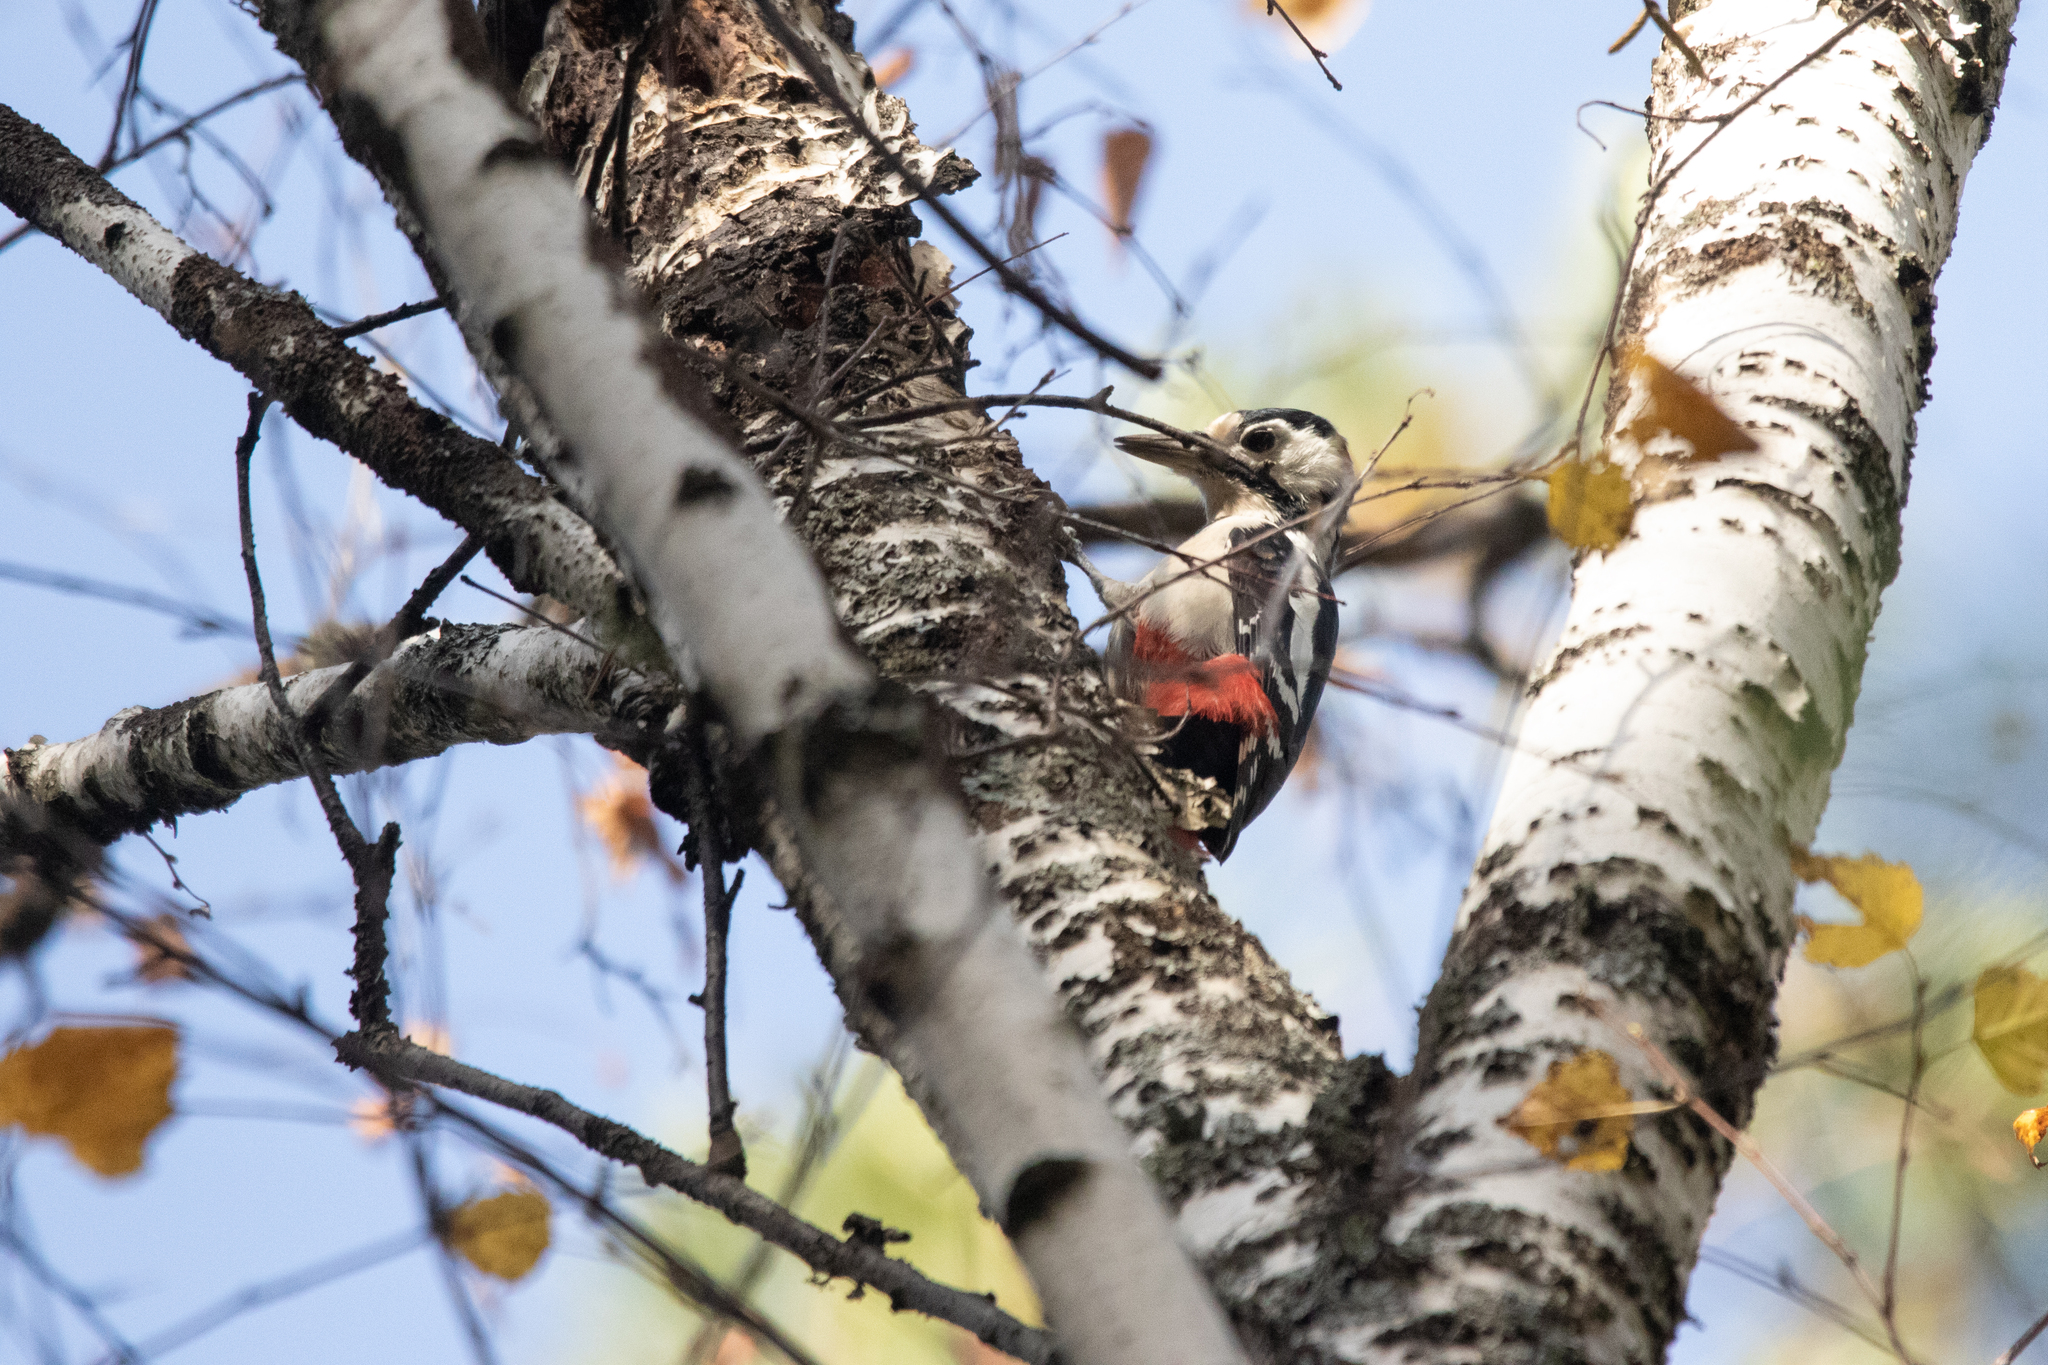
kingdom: Animalia
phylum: Chordata
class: Aves
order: Piciformes
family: Picidae
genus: Dendrocopos
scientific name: Dendrocopos major
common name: Great spotted woodpecker
